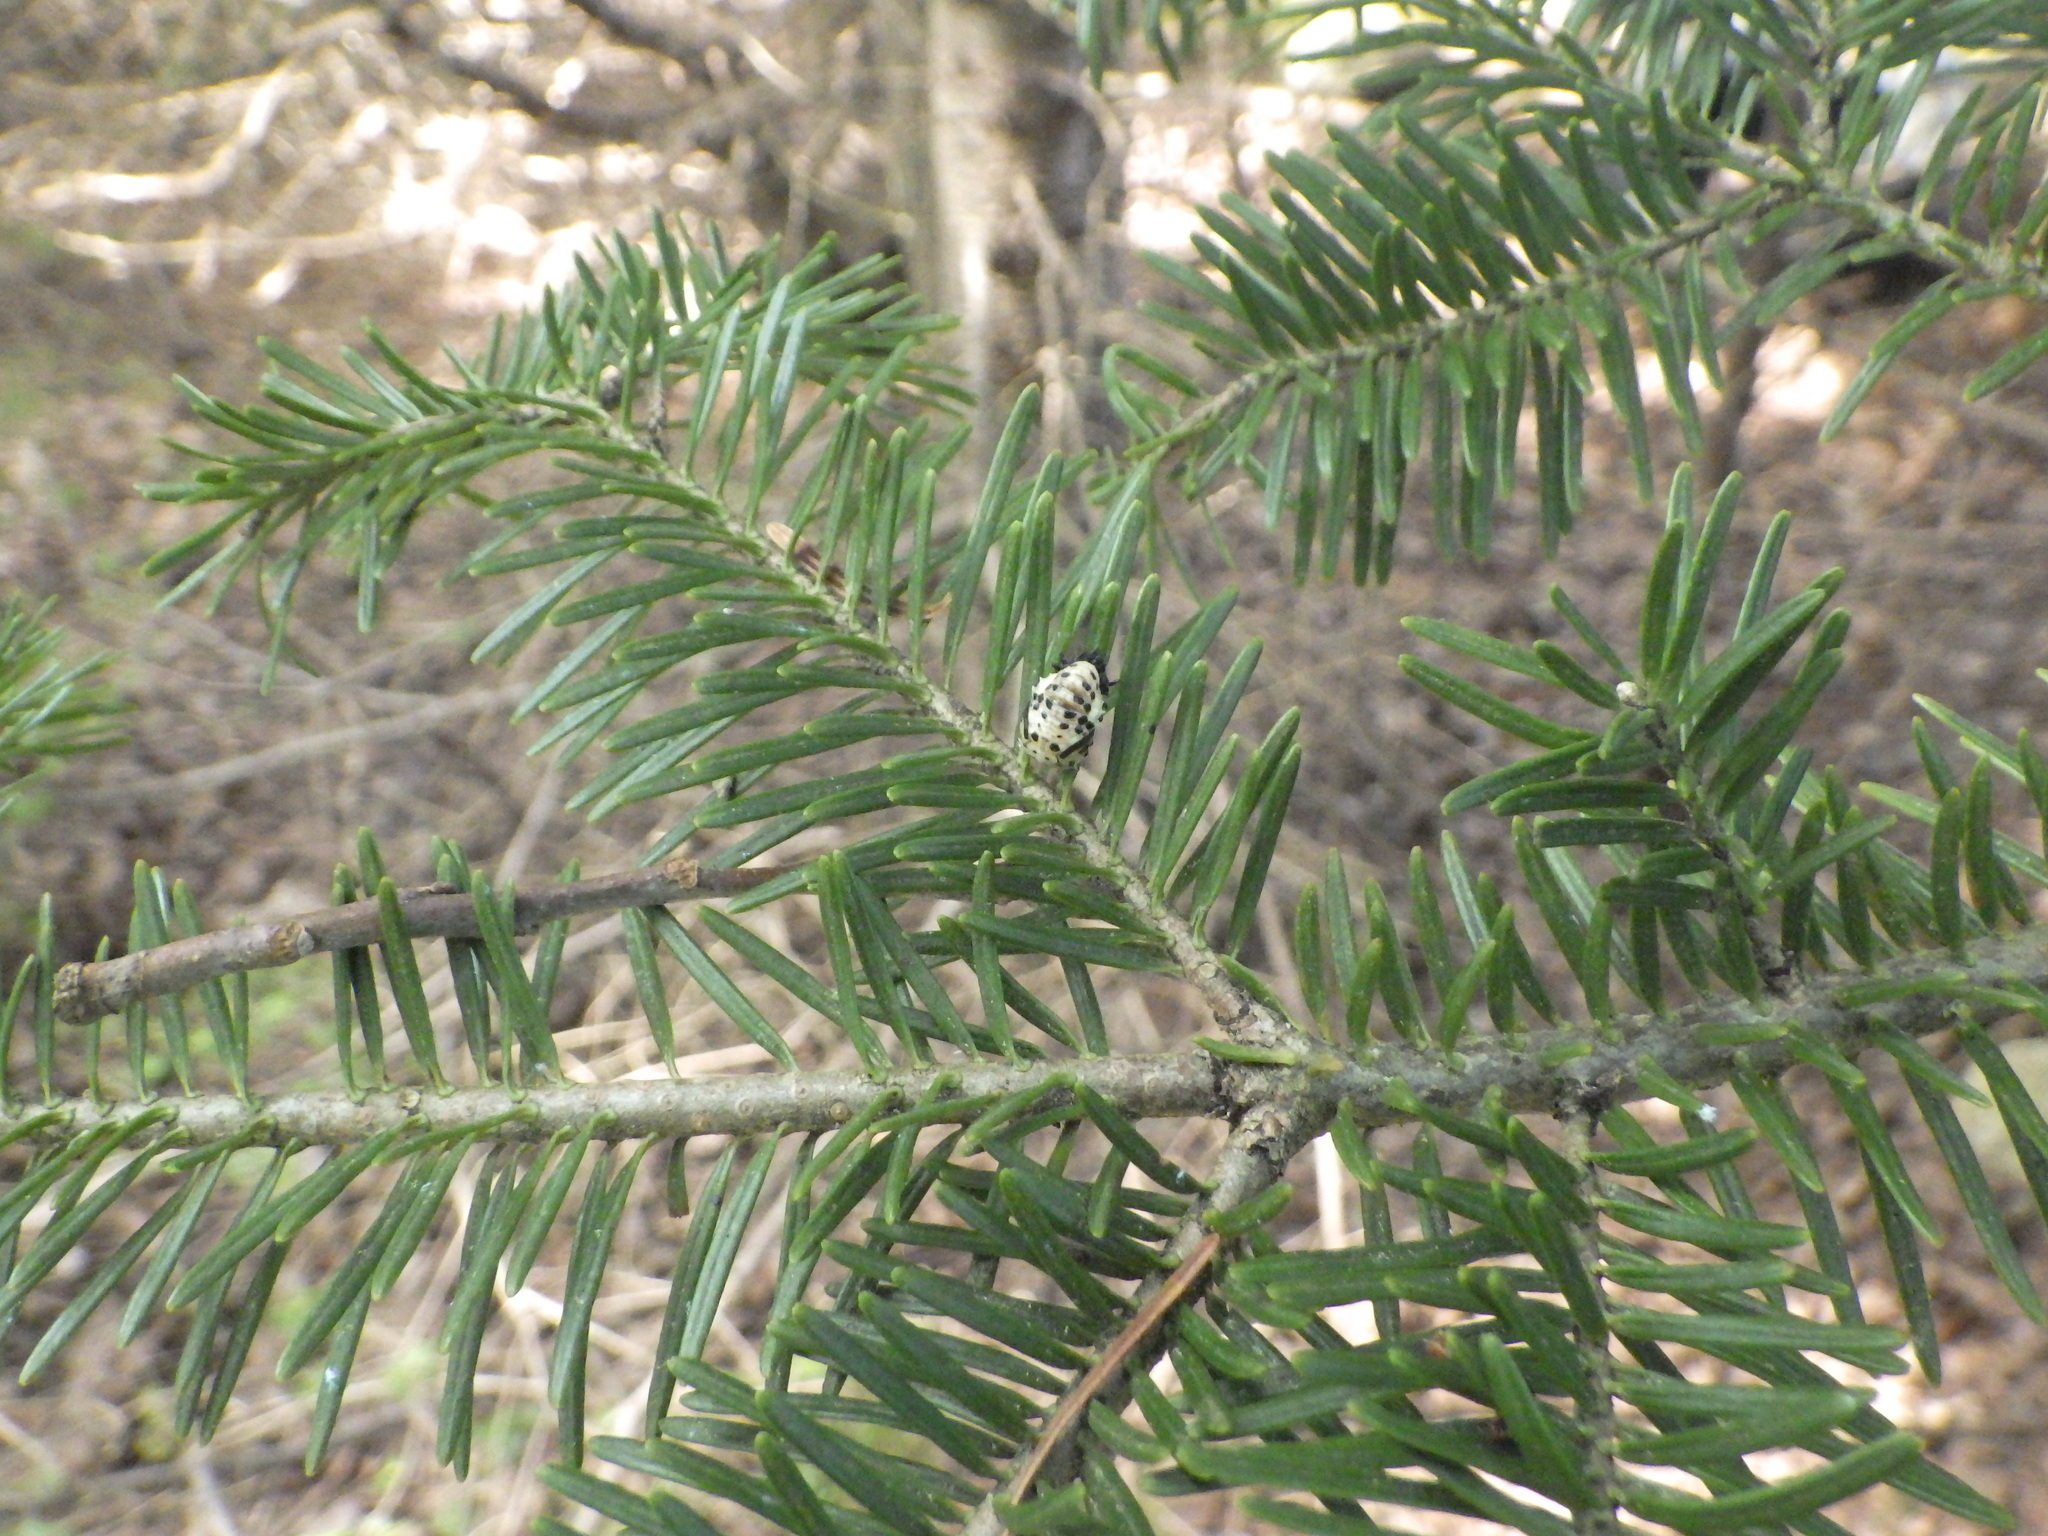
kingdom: Animalia
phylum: Arthropoda
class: Insecta
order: Coleoptera
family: Coccinellidae
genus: Anatis
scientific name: Anatis mali
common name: Eye-spotted lady beetle
